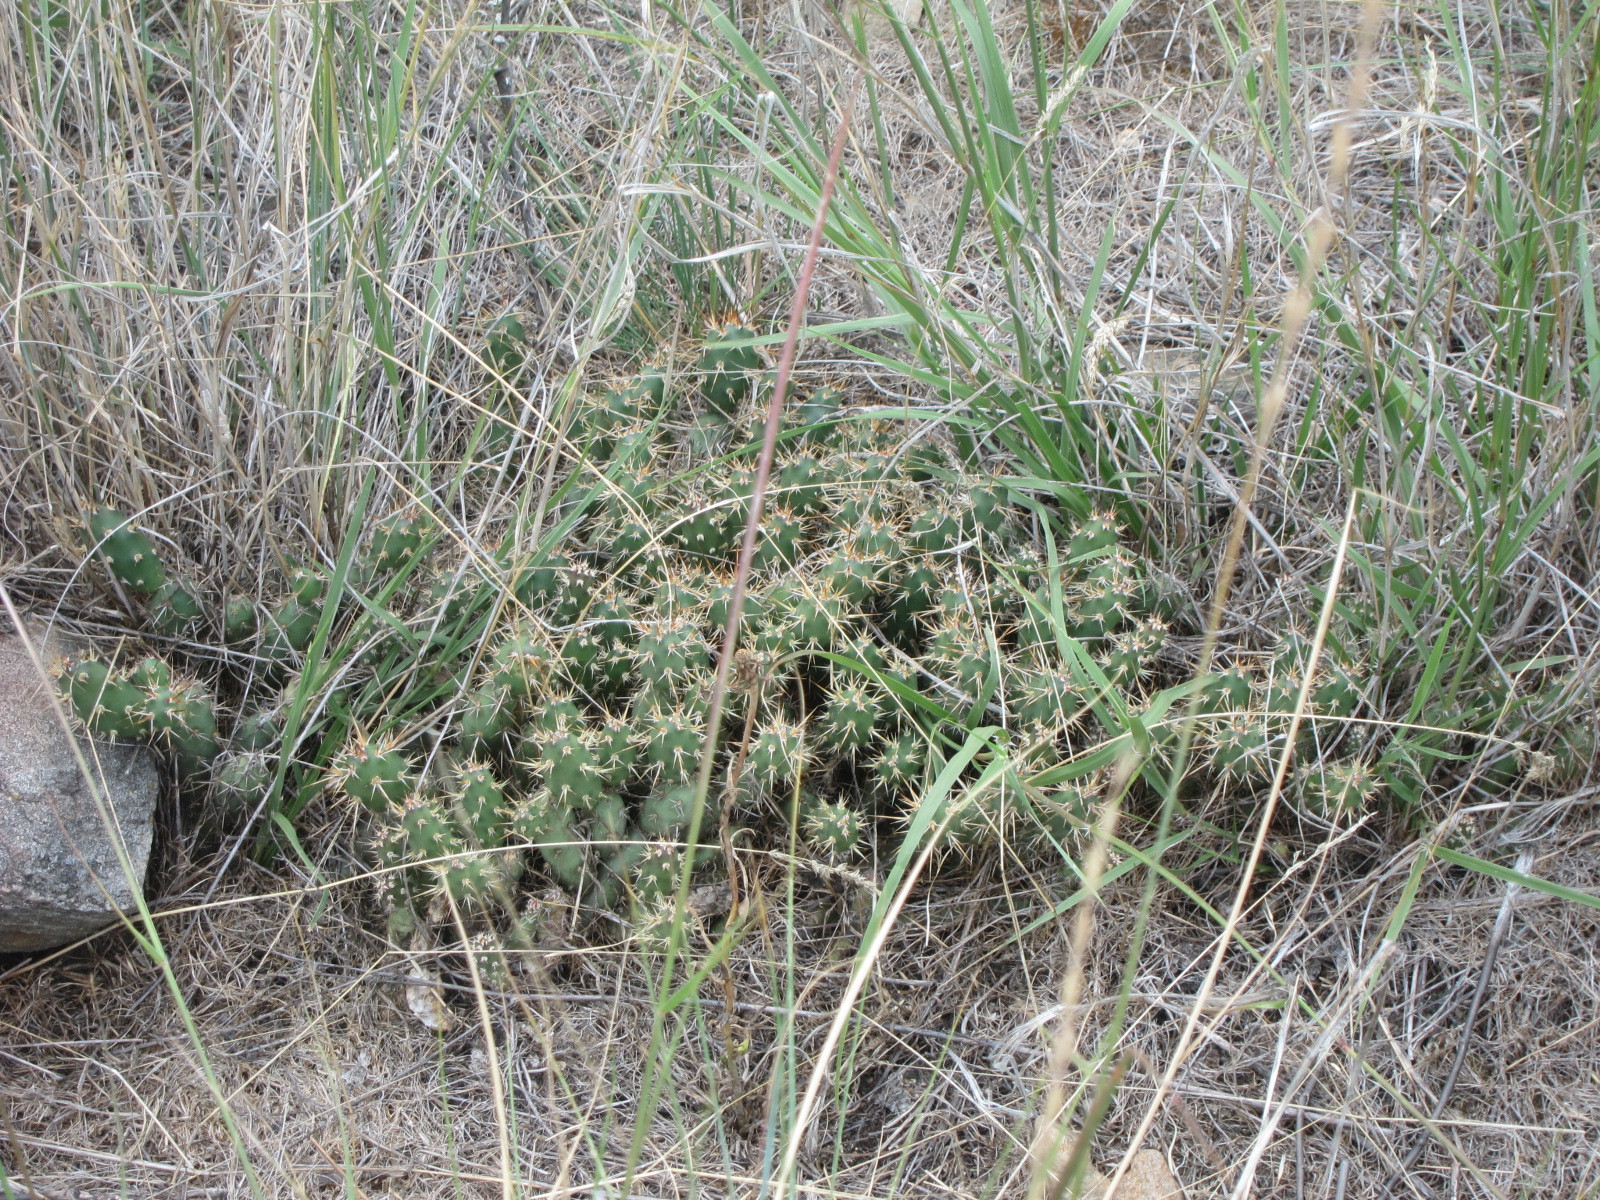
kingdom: Plantae
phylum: Tracheophyta
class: Magnoliopsida
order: Caryophyllales
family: Cactaceae
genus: Opuntia
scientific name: Opuntia fragilis
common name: Brittle cactus
